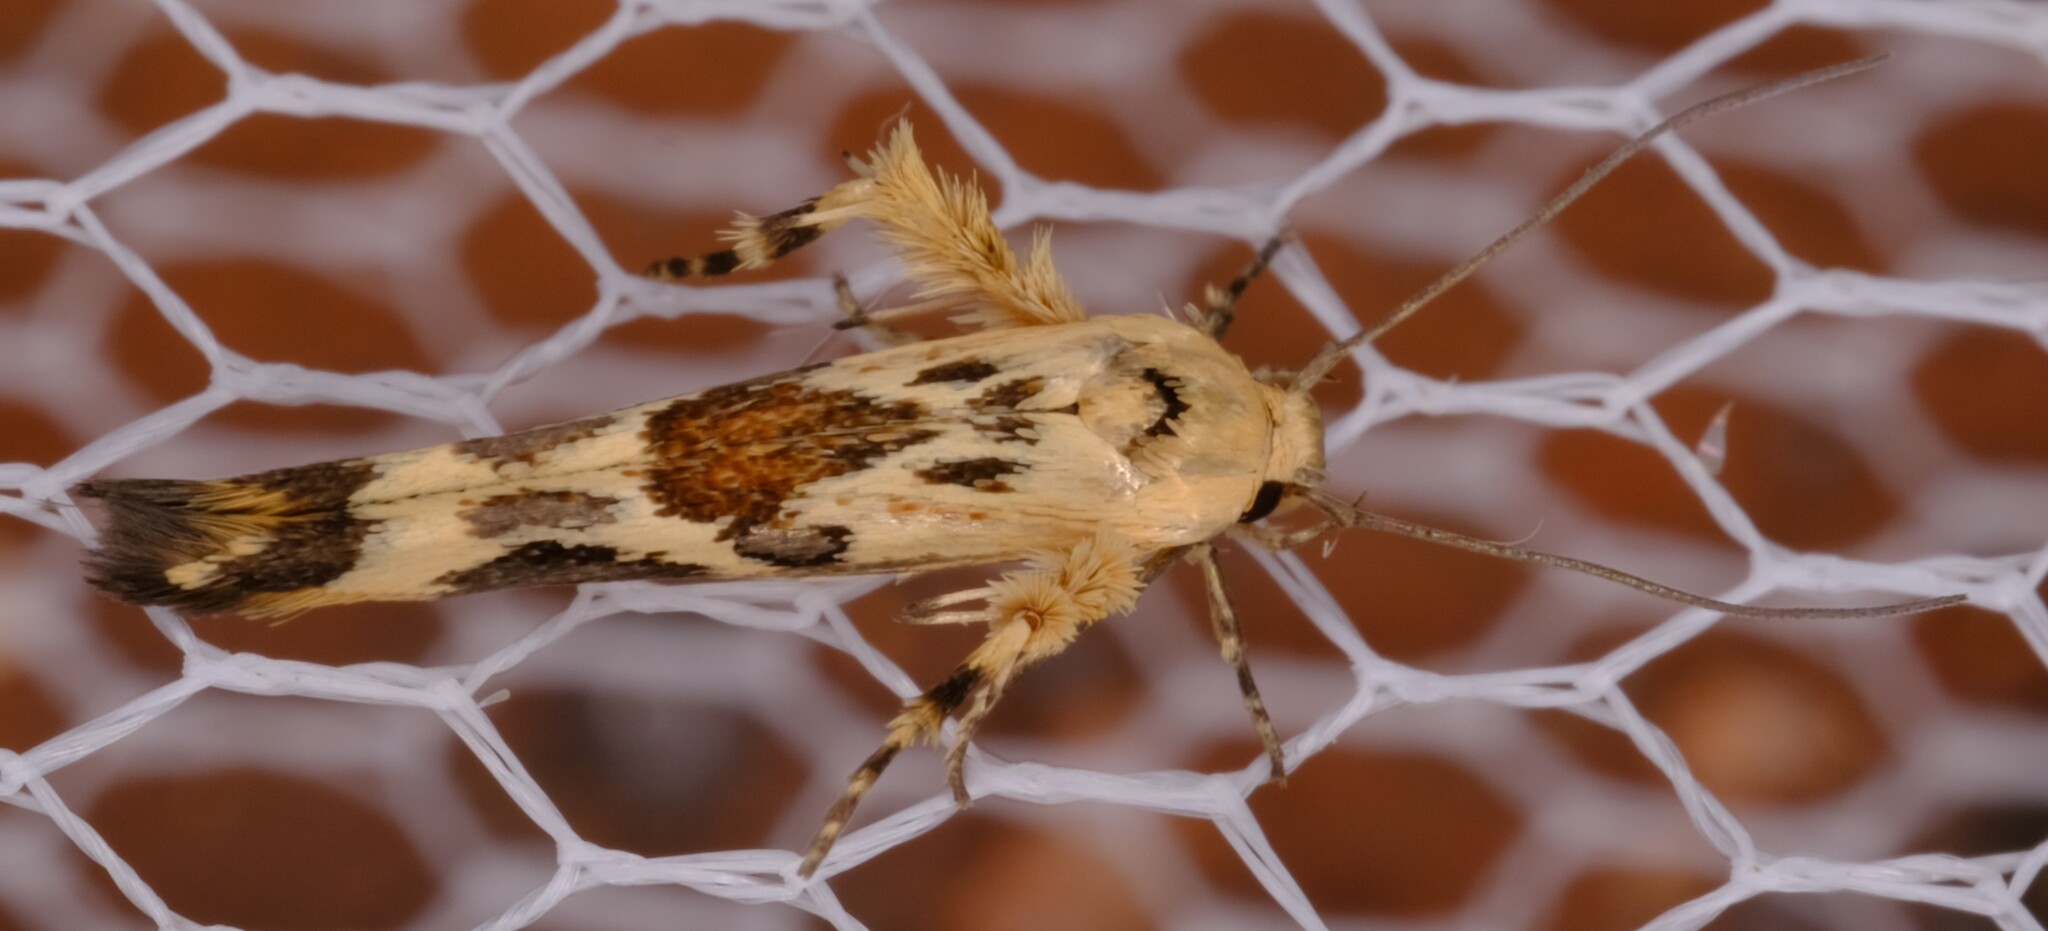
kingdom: Animalia
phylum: Arthropoda
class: Insecta
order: Lepidoptera
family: Stathmopodidae
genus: Stathmopoda
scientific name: Stathmopoda melanochra
